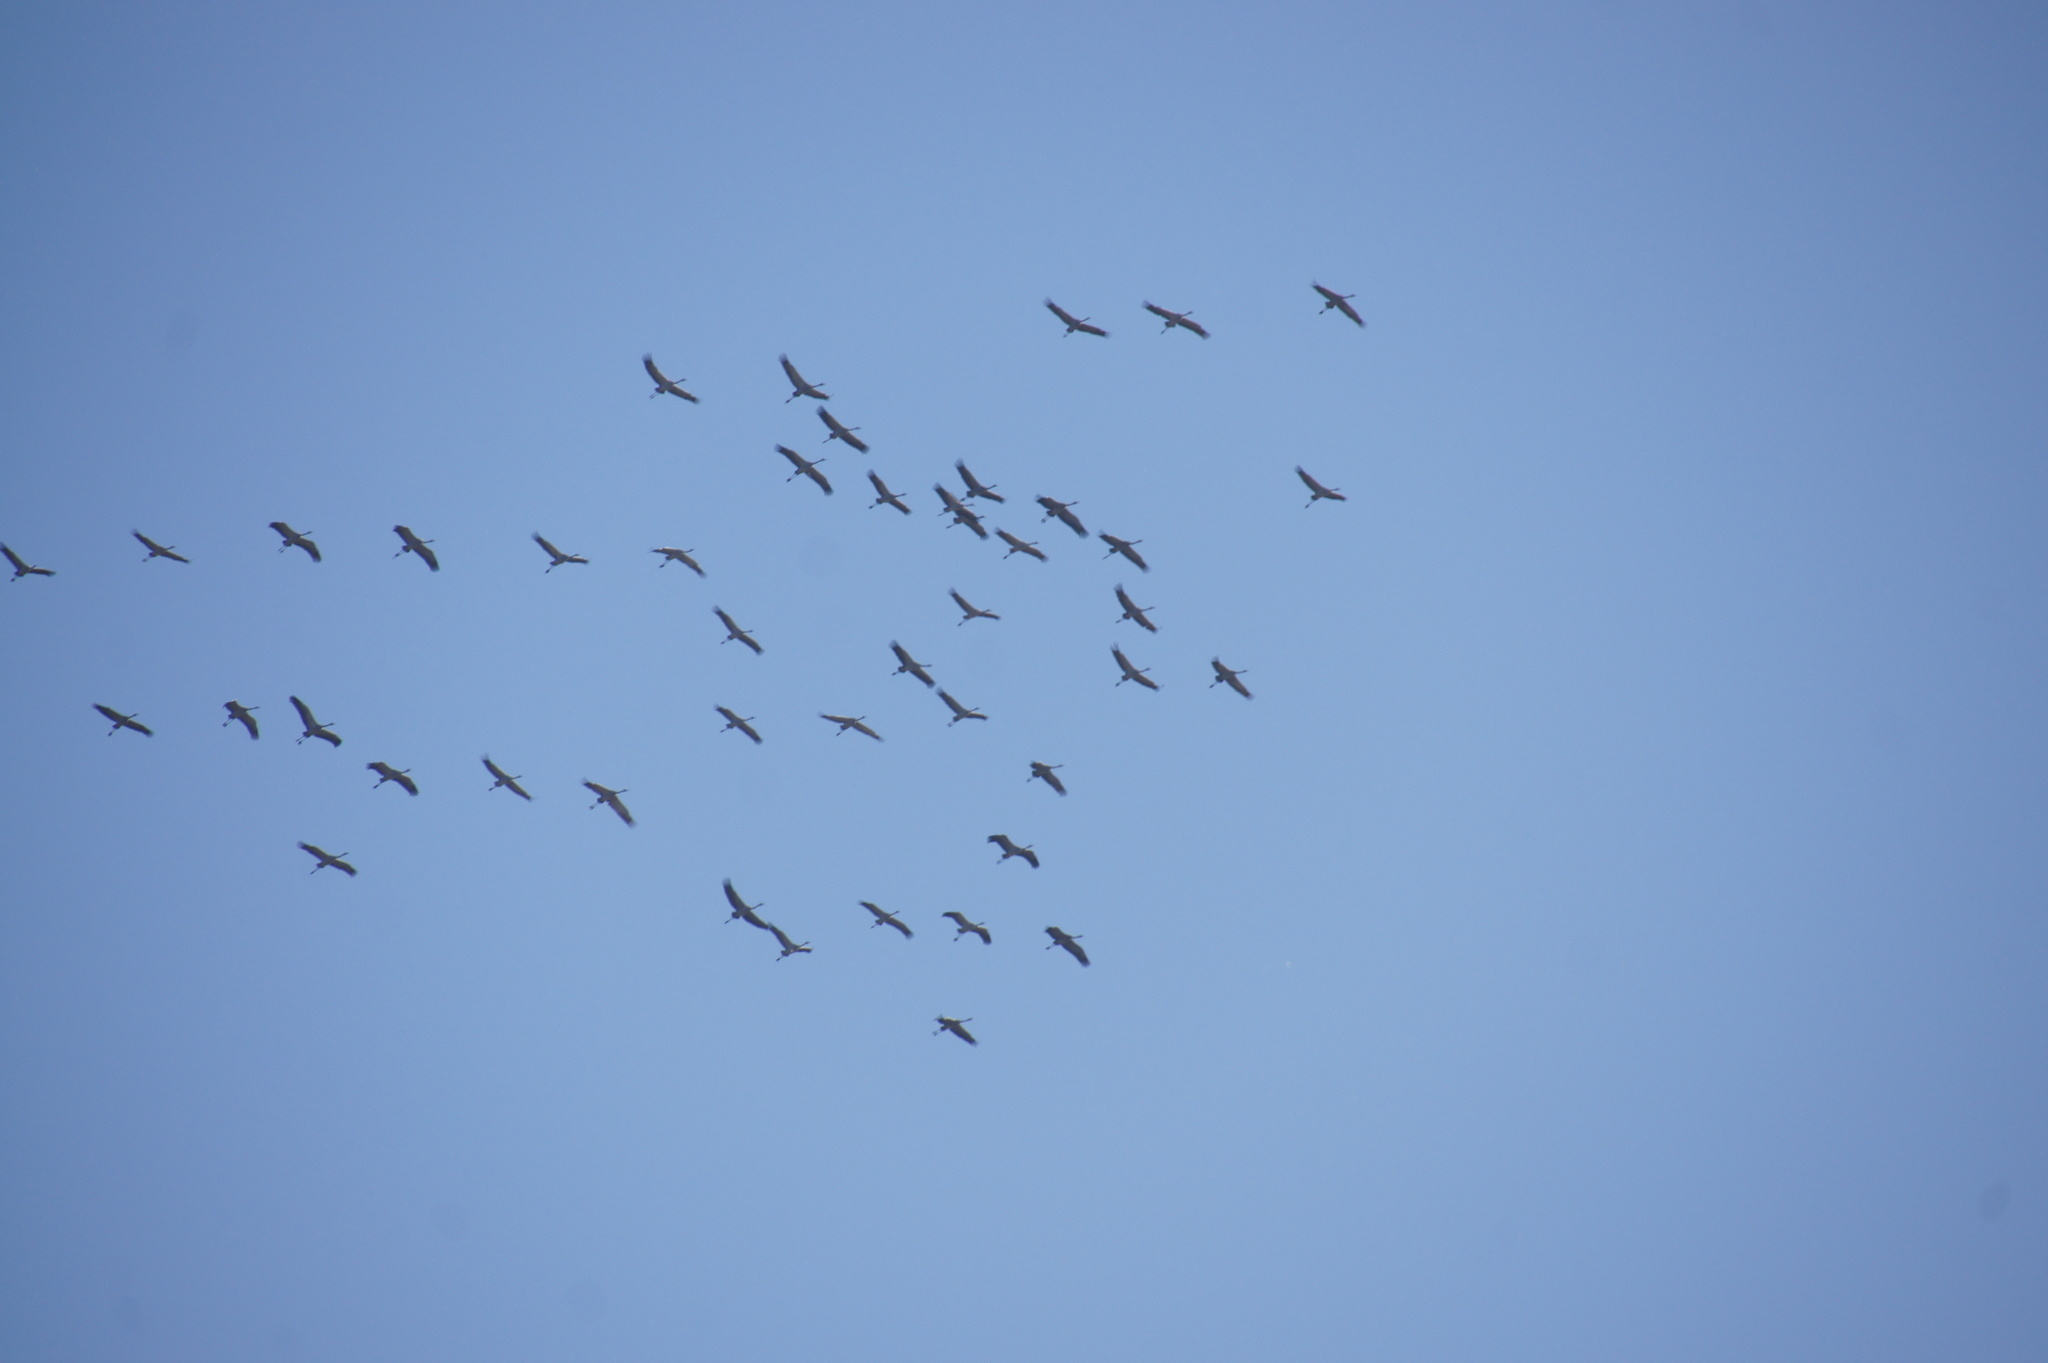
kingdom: Animalia
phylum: Chordata
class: Aves
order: Gruiformes
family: Gruidae
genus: Grus
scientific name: Grus grus
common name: Common crane
